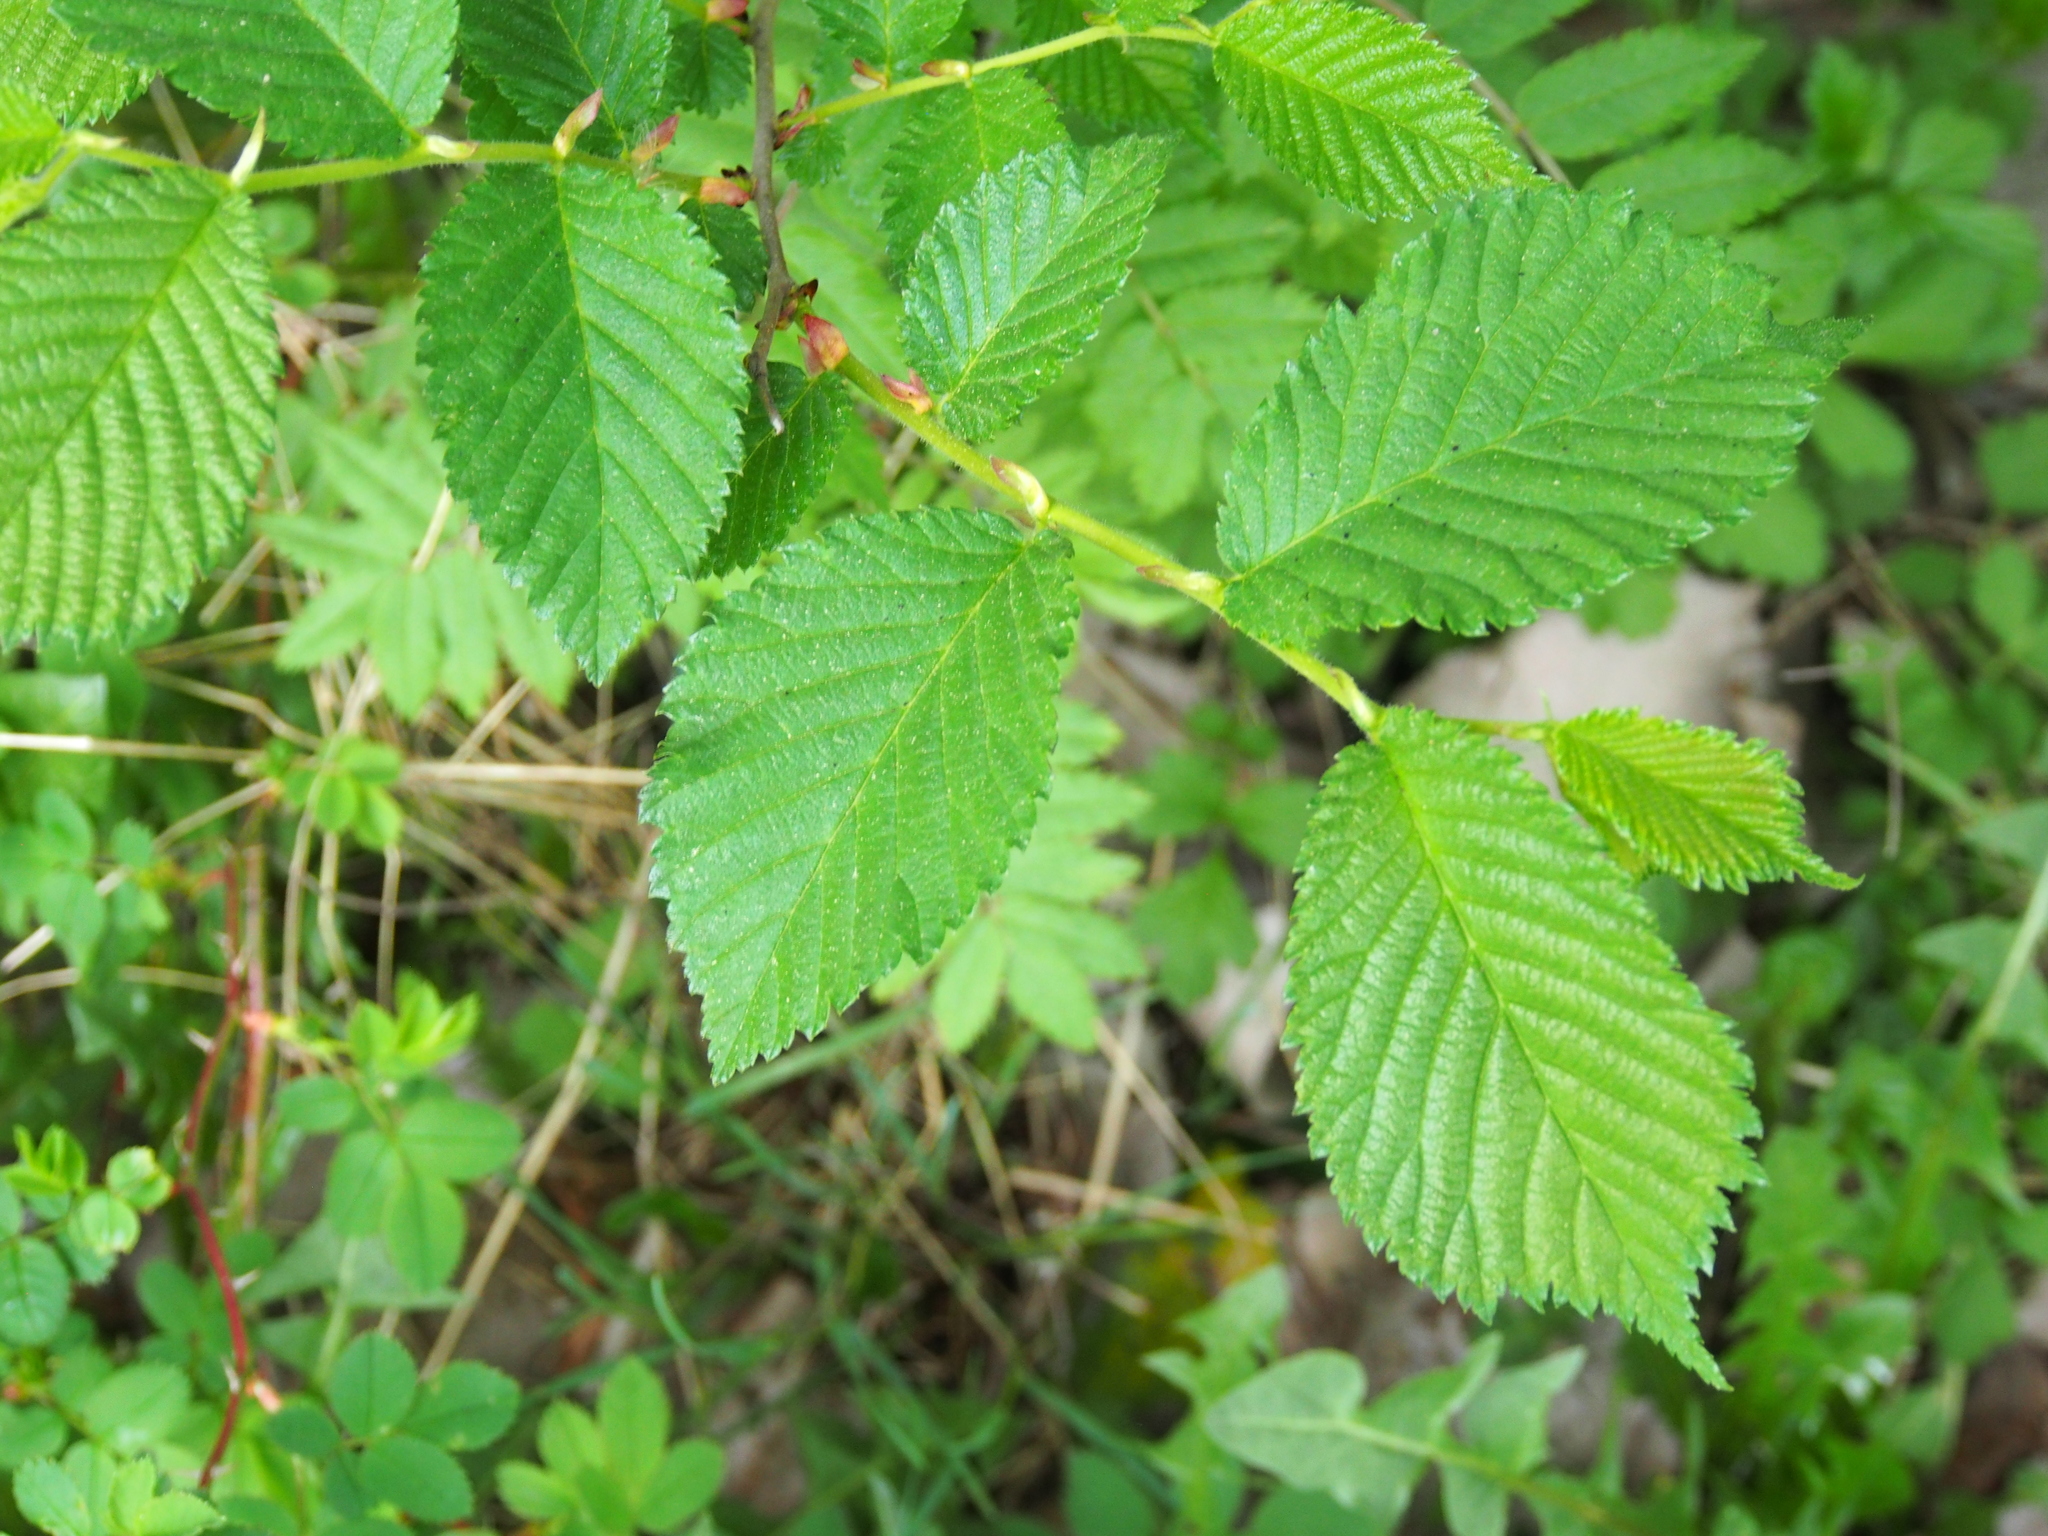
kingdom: Plantae
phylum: Tracheophyta
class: Magnoliopsida
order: Rosales
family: Ulmaceae
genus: Ulmus
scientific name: Ulmus glabra
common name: Wych elm
